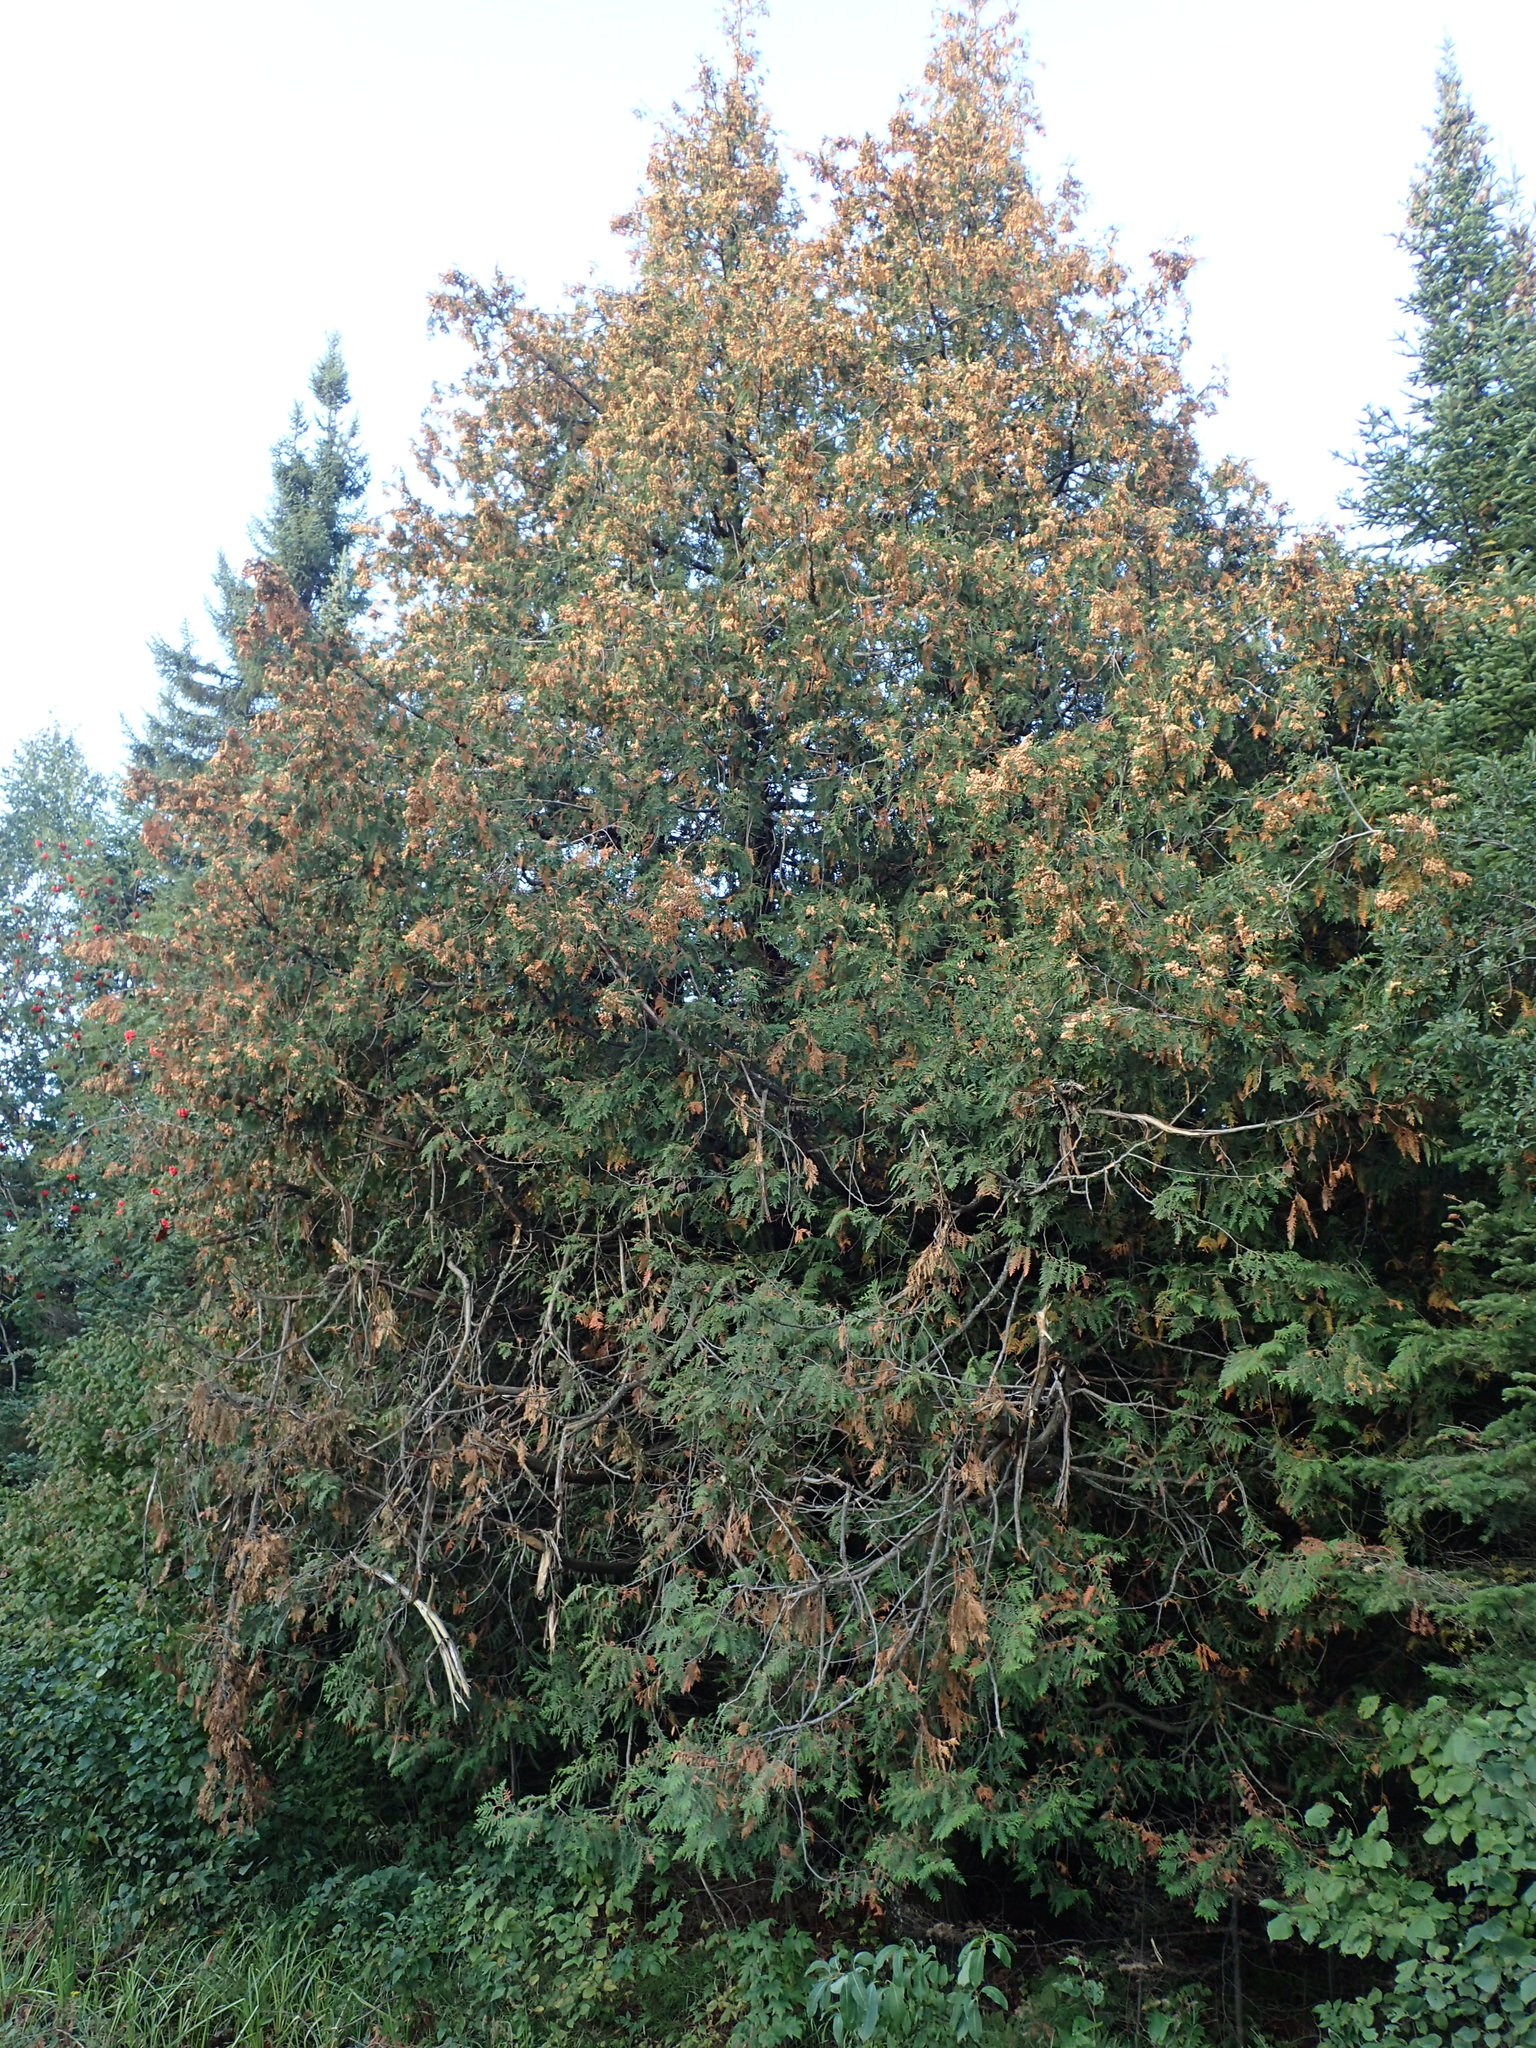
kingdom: Plantae
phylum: Tracheophyta
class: Pinopsida
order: Pinales
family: Cupressaceae
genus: Thuja
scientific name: Thuja occidentalis
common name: Northern white-cedar
